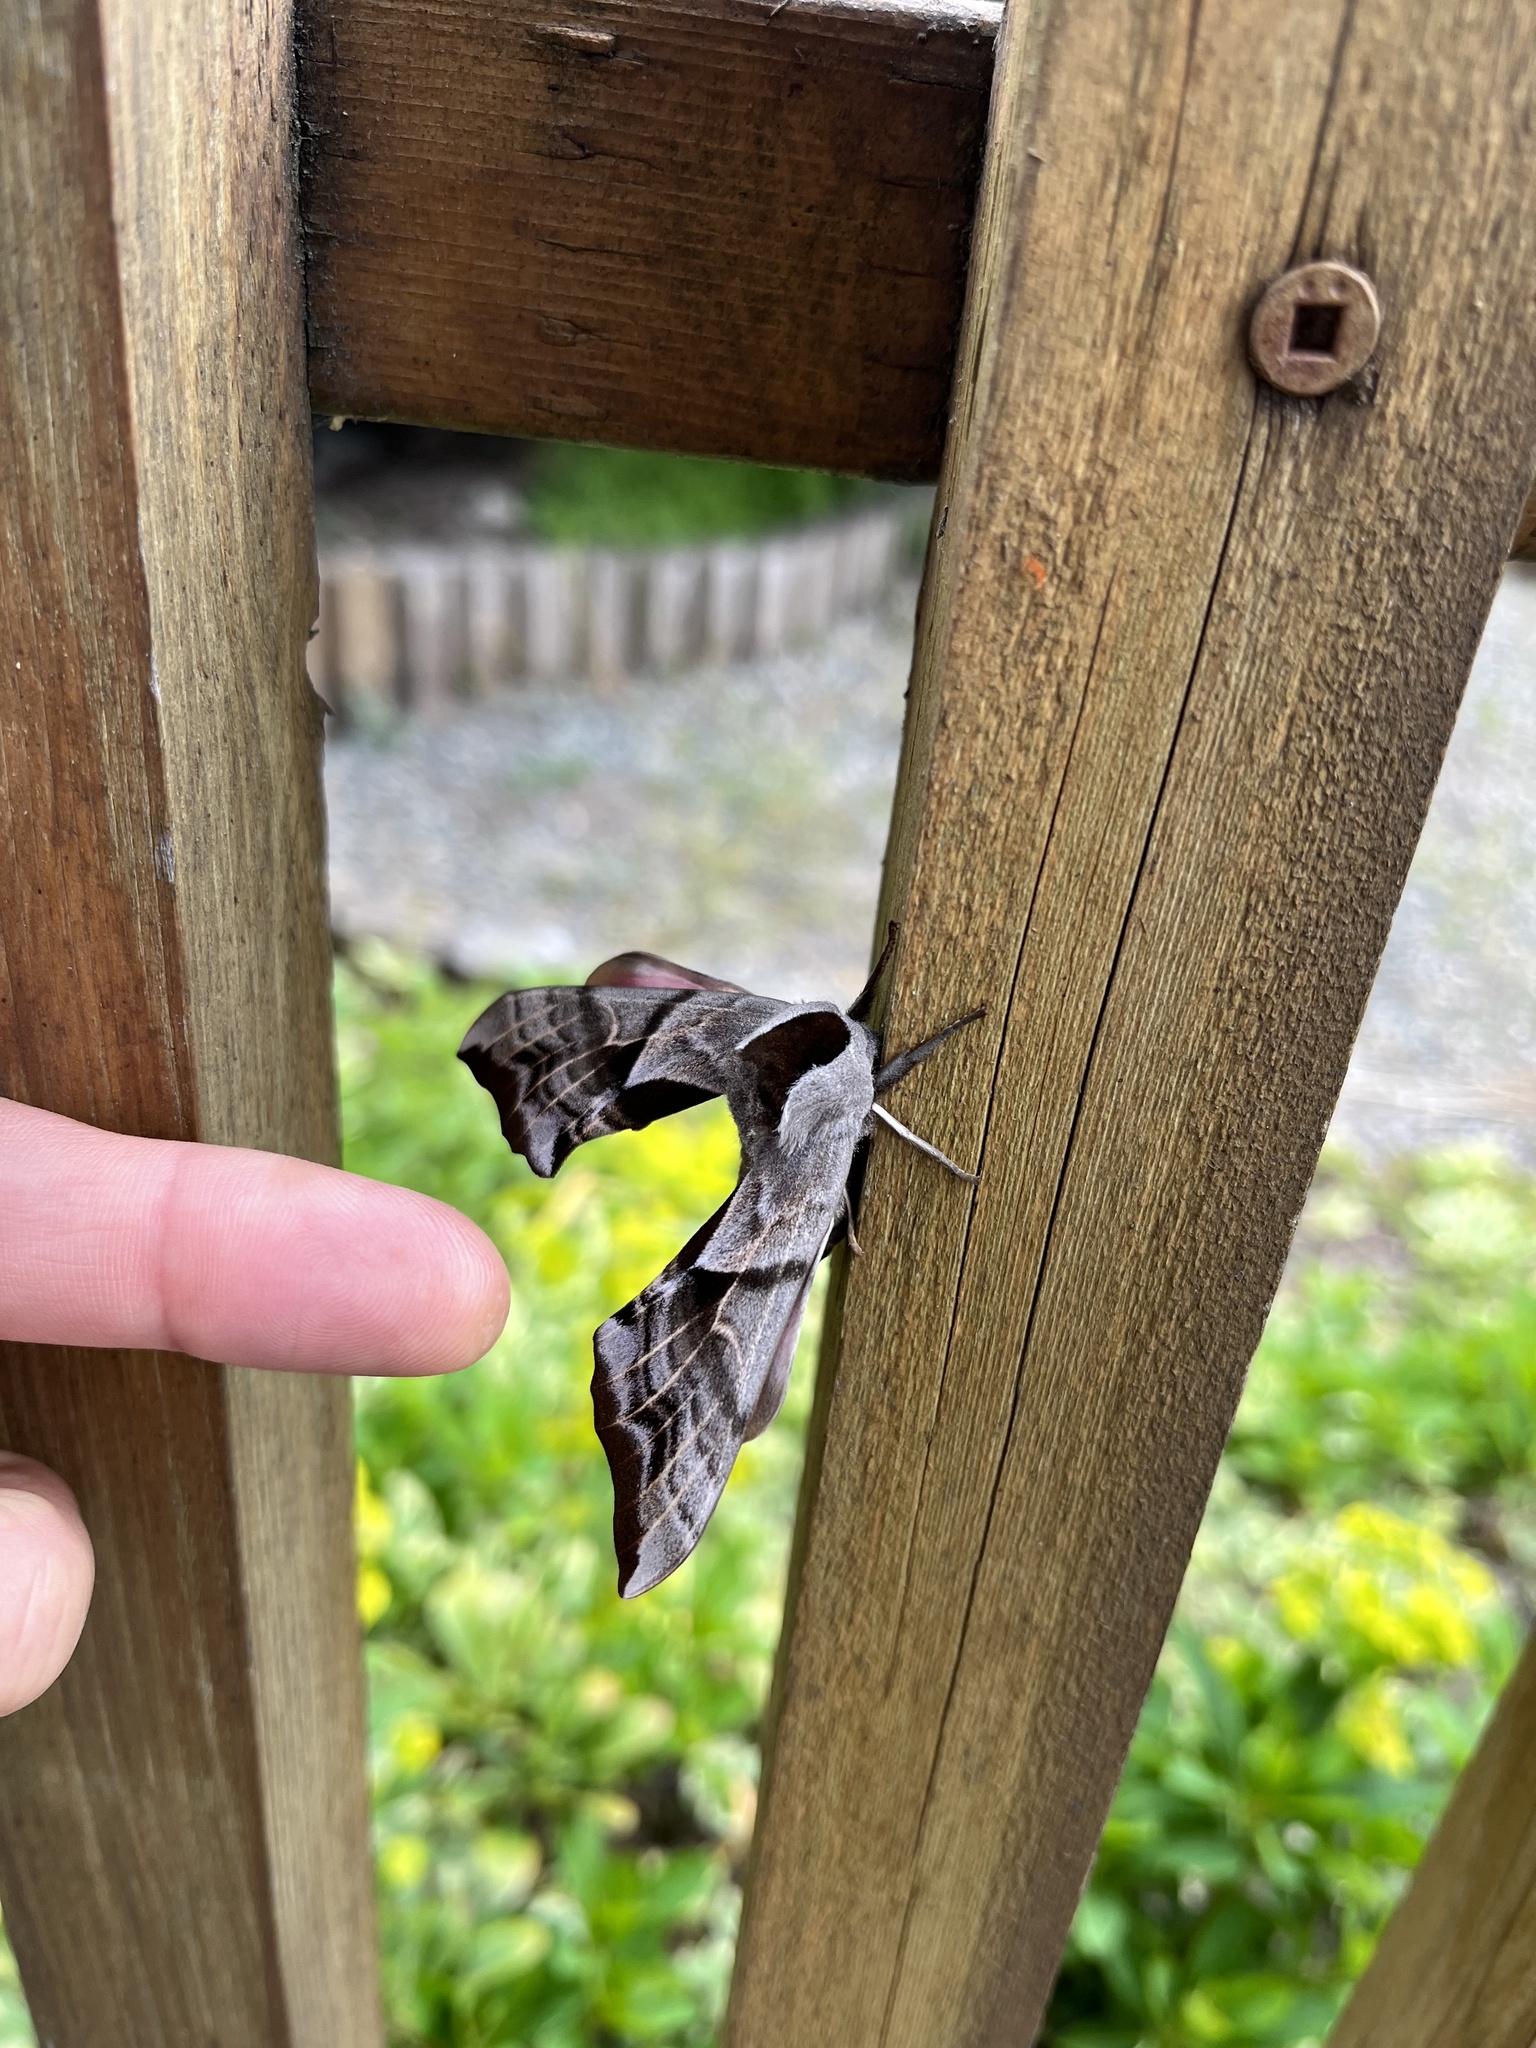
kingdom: Animalia
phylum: Arthropoda
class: Insecta
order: Lepidoptera
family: Sphingidae
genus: Smerinthus
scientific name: Smerinthus cerisyi
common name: Cerisy's sphinx moth
